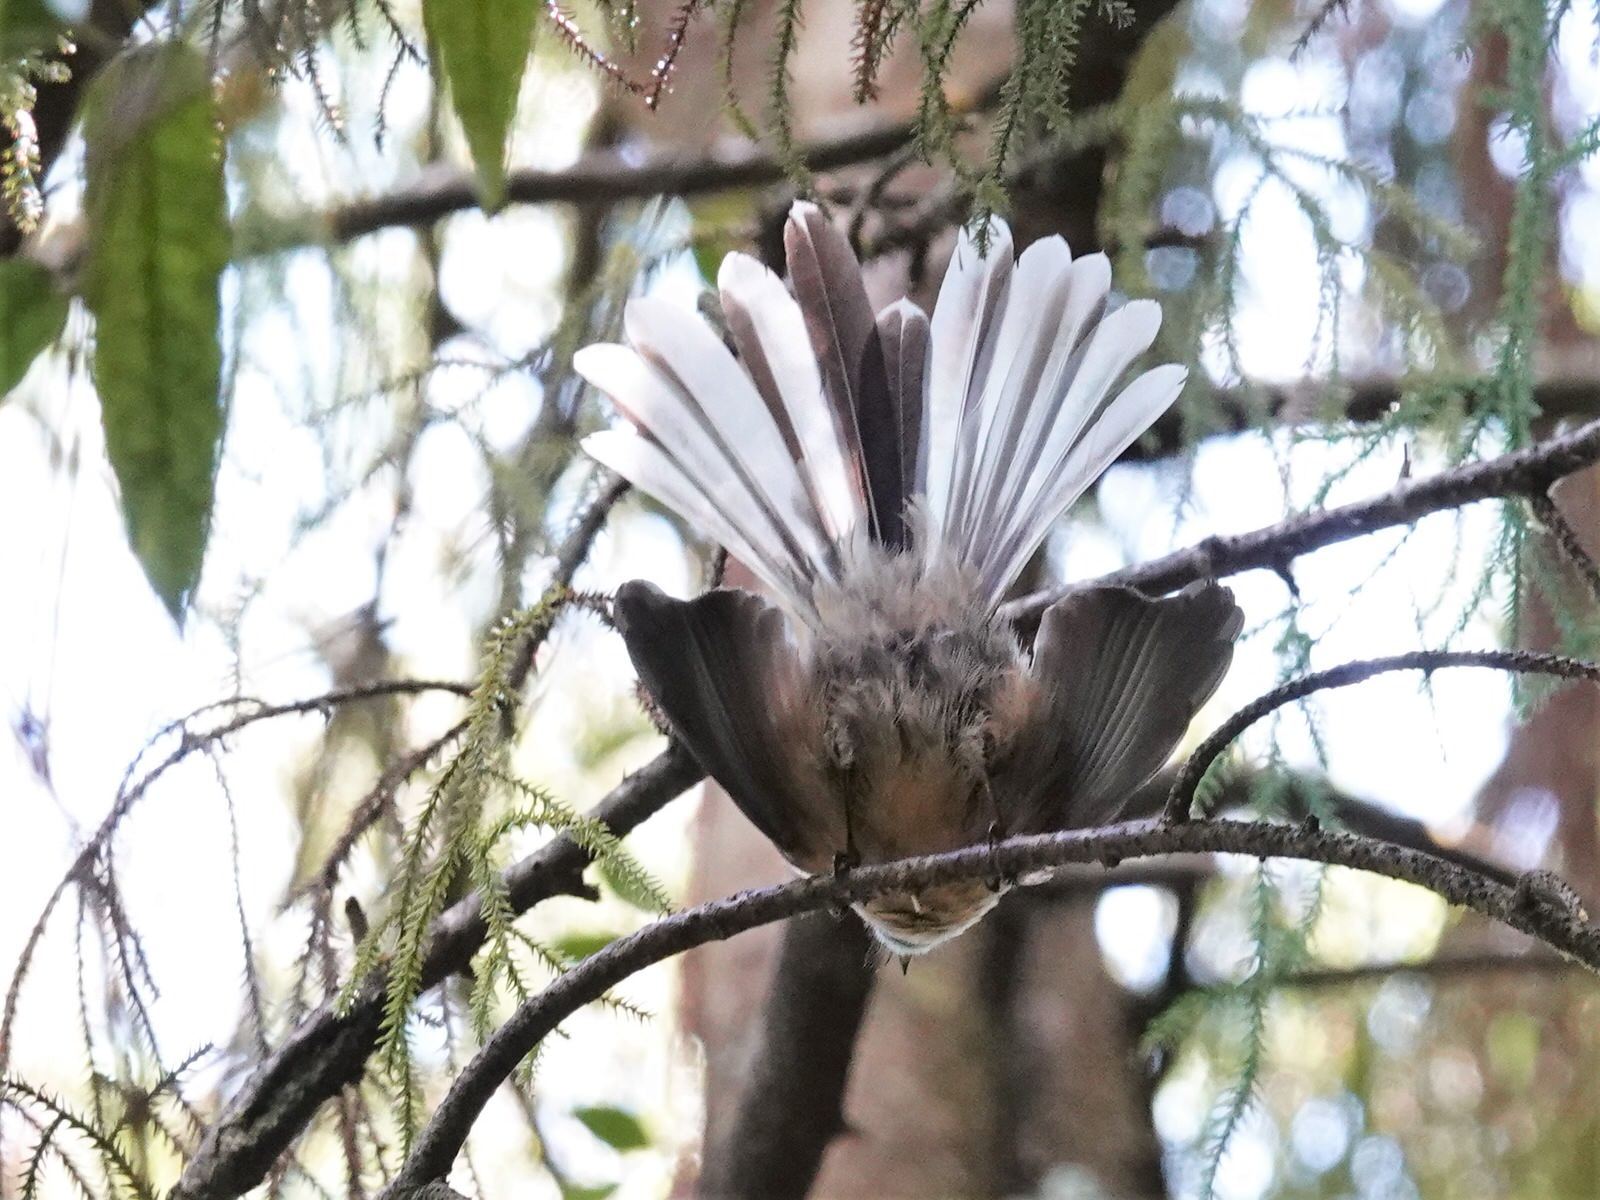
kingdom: Animalia
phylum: Chordata
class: Aves
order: Passeriformes
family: Rhipiduridae
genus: Rhipidura
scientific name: Rhipidura fuliginosa
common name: New zealand fantail
